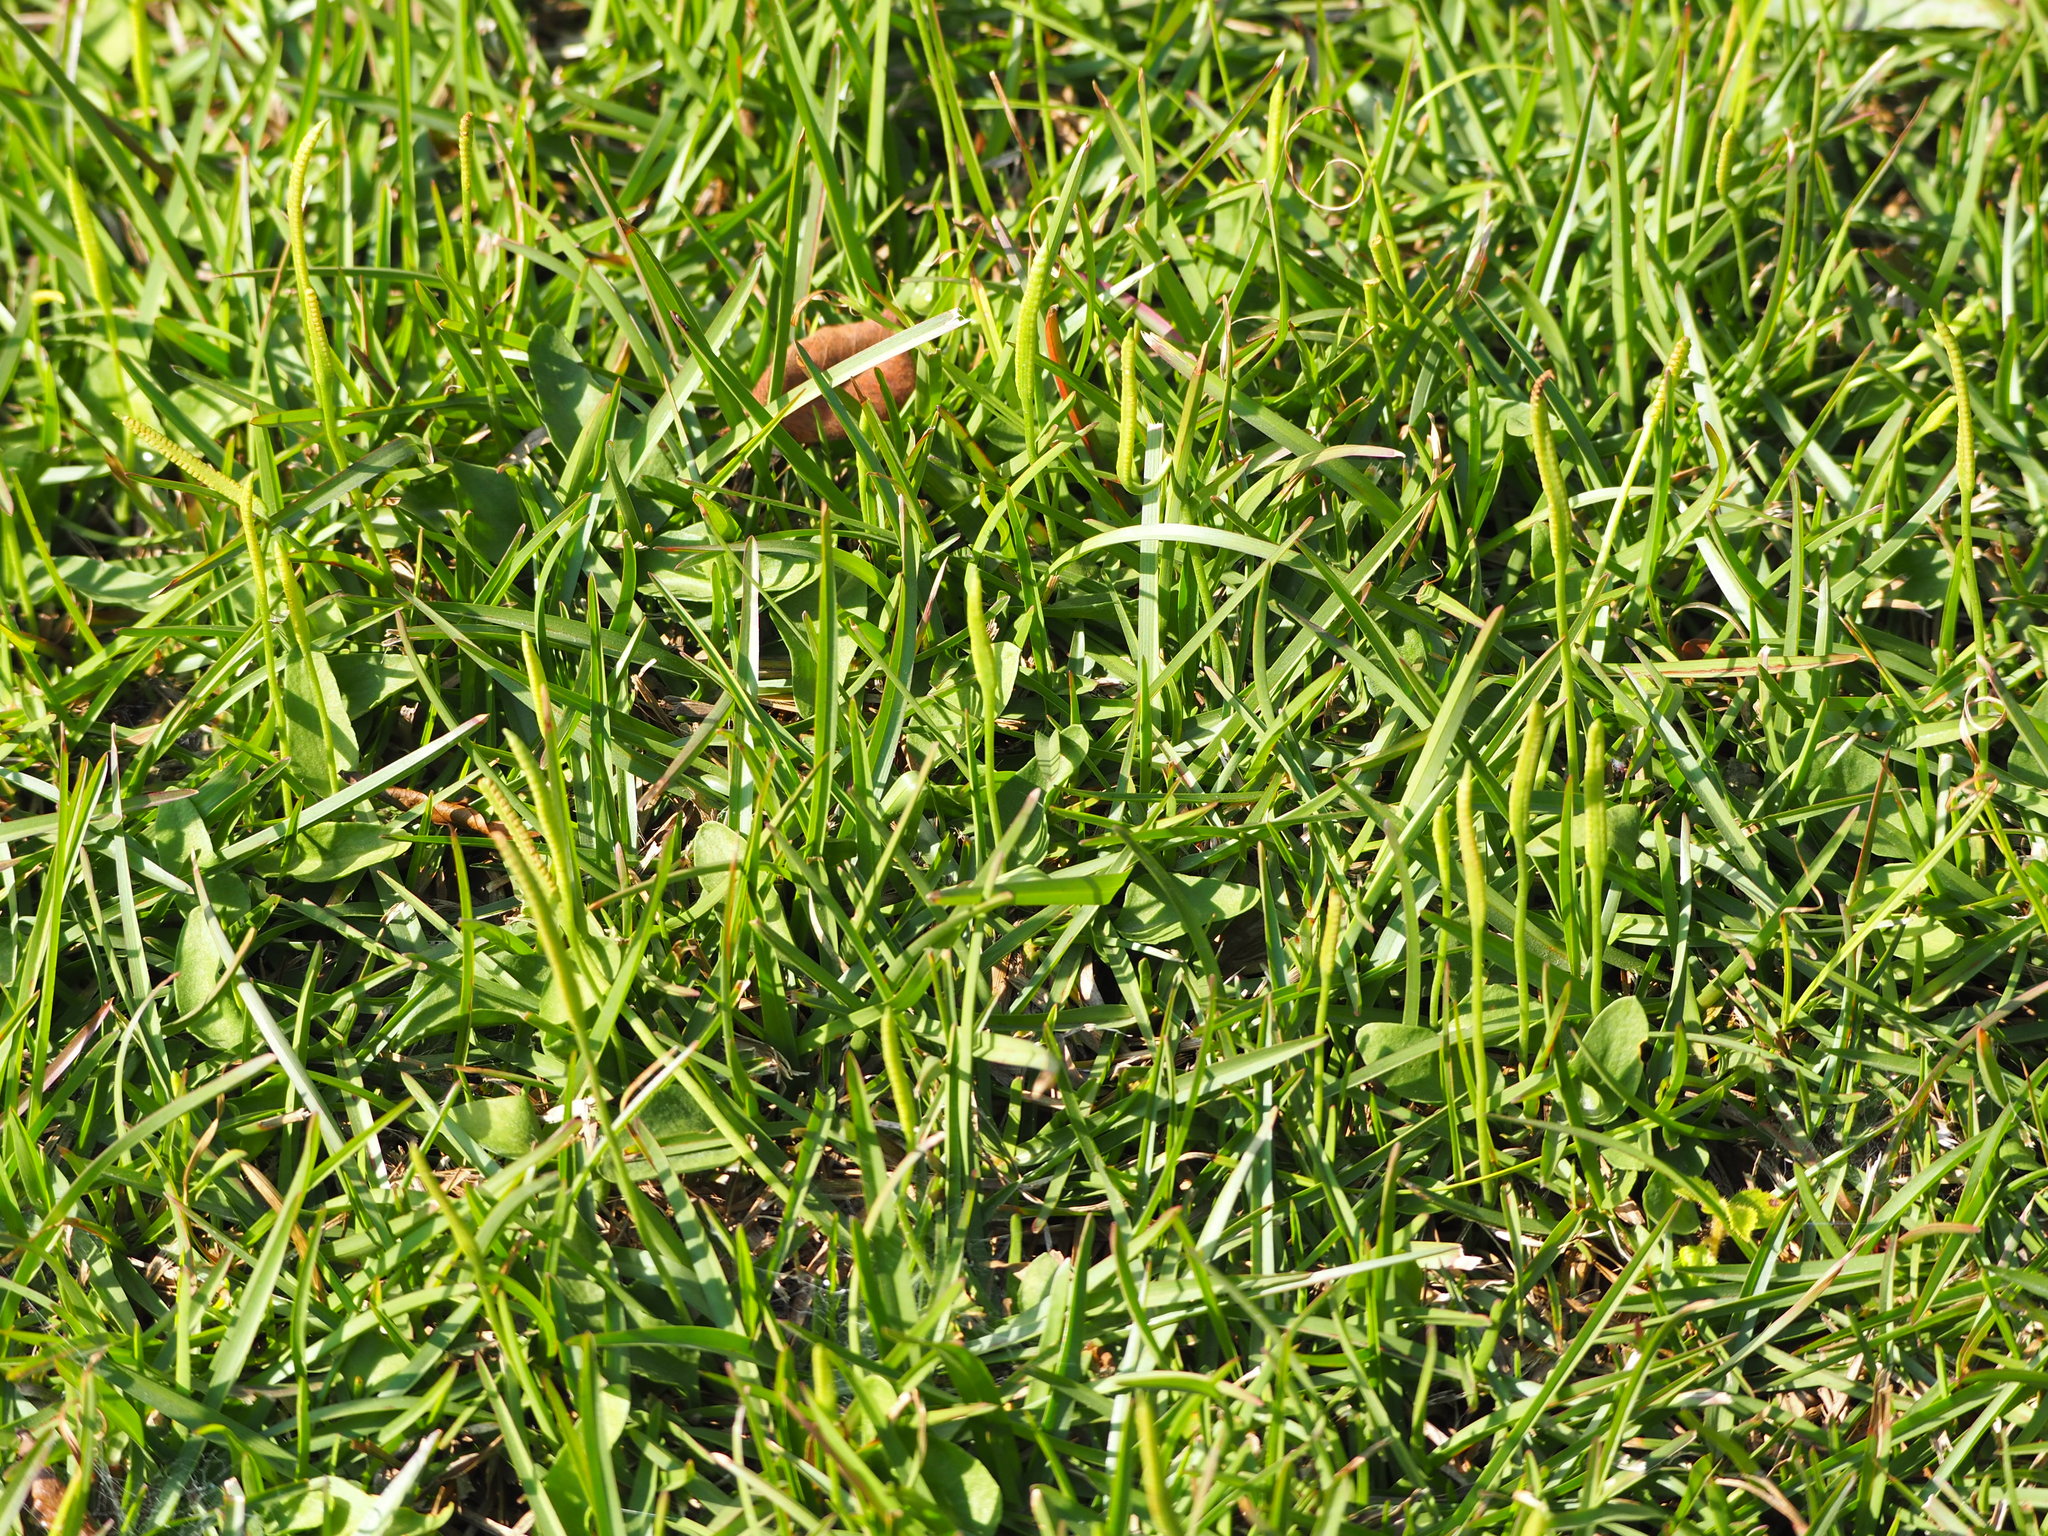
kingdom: Plantae
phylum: Tracheophyta
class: Polypodiopsida
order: Ophioglossales
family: Ophioglossaceae
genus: Ophioglossum
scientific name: Ophioglossum petiolatum
